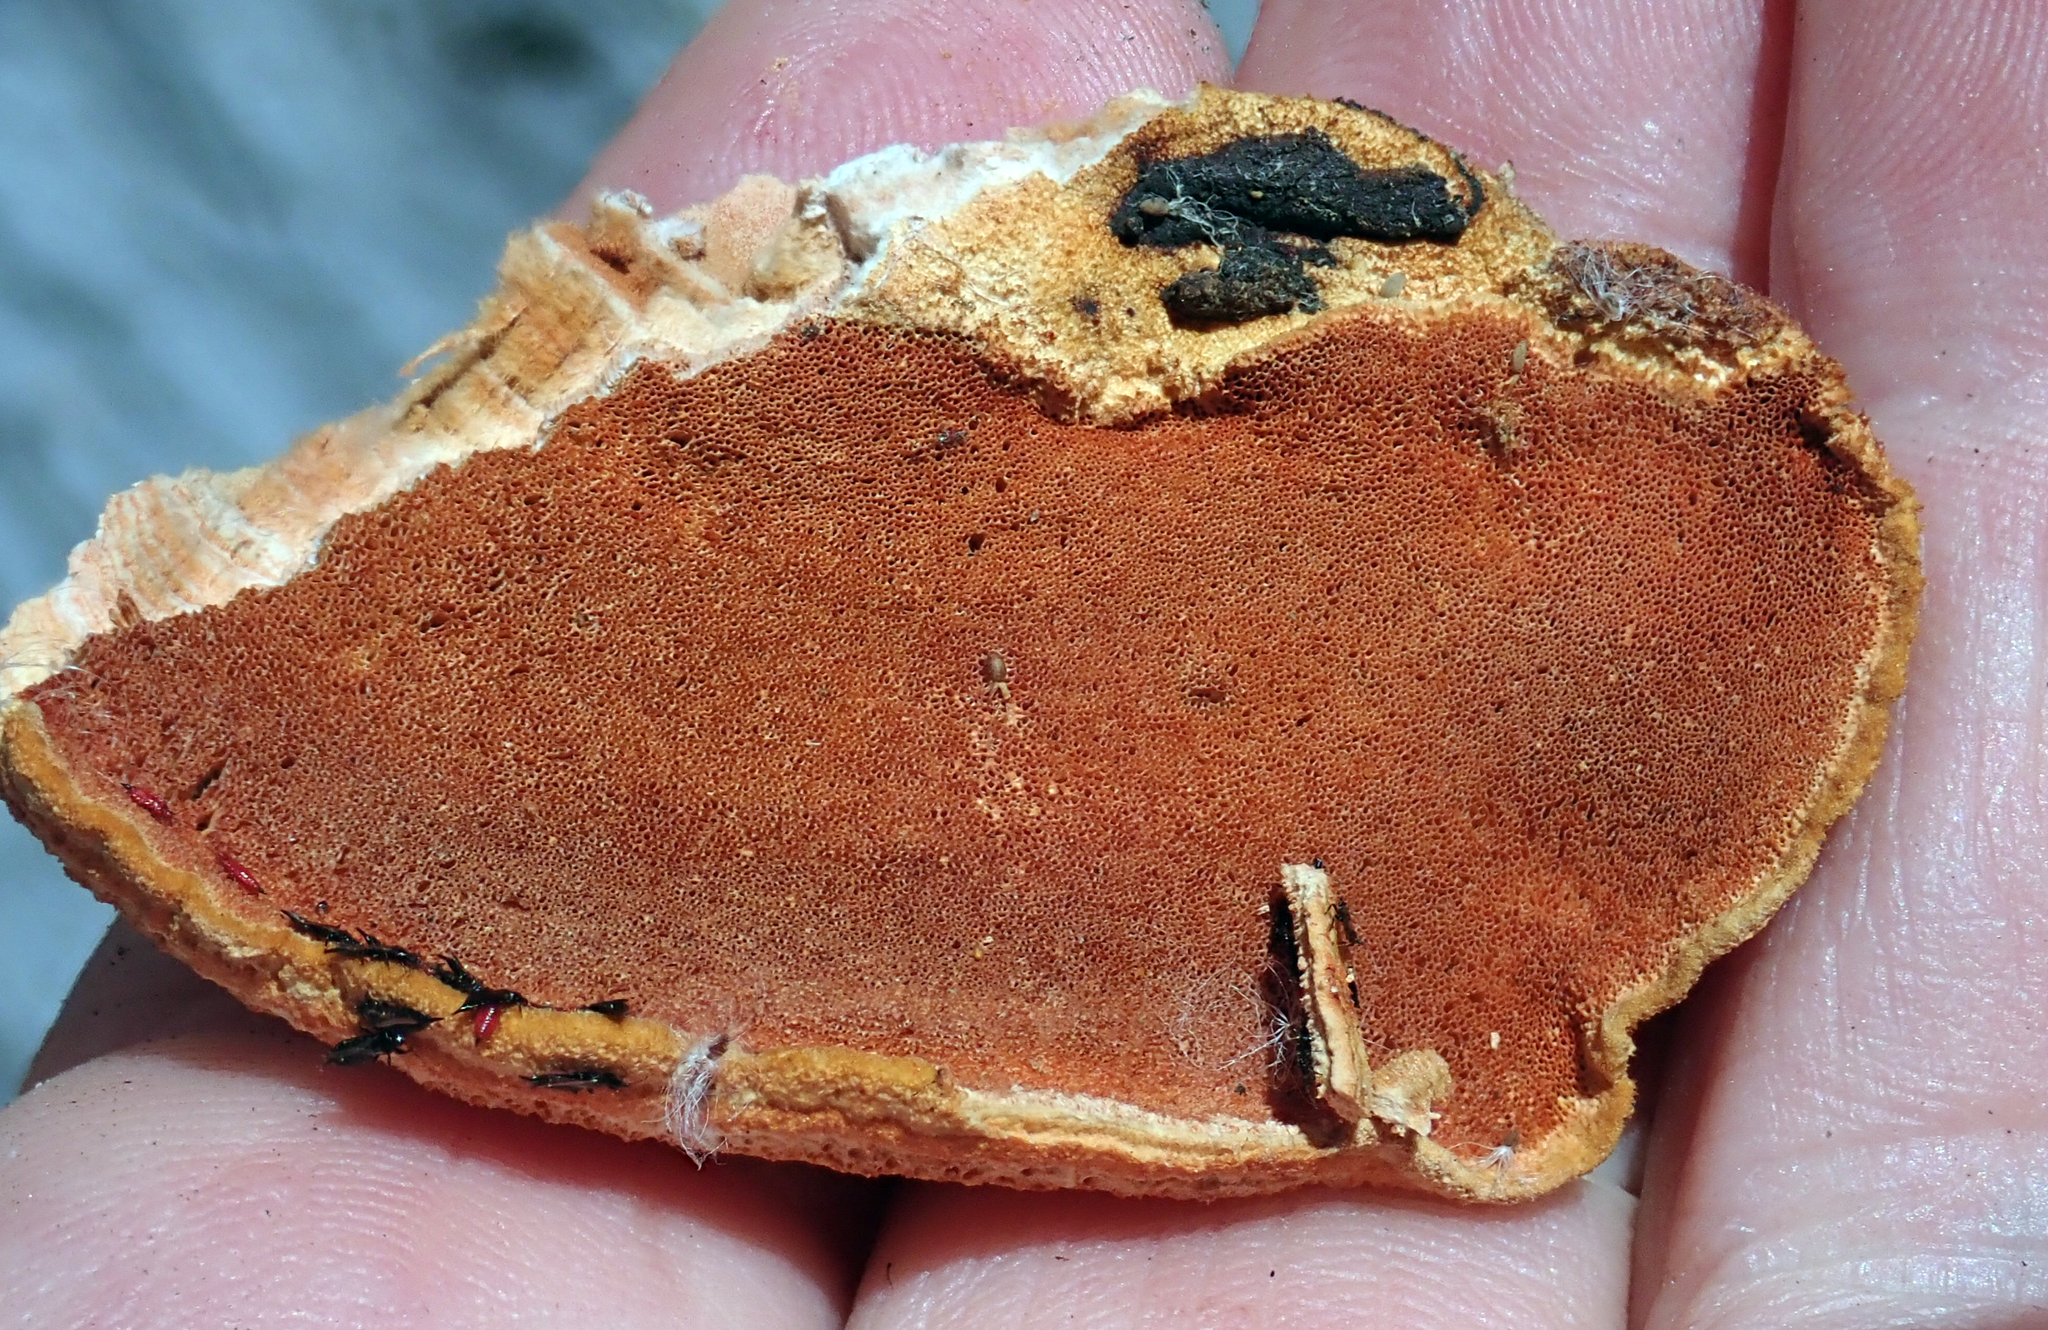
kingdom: Fungi
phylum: Basidiomycota
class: Agaricomycetes
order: Polyporales
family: Polyporaceae
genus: Trametes
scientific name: Trametes coccinea
